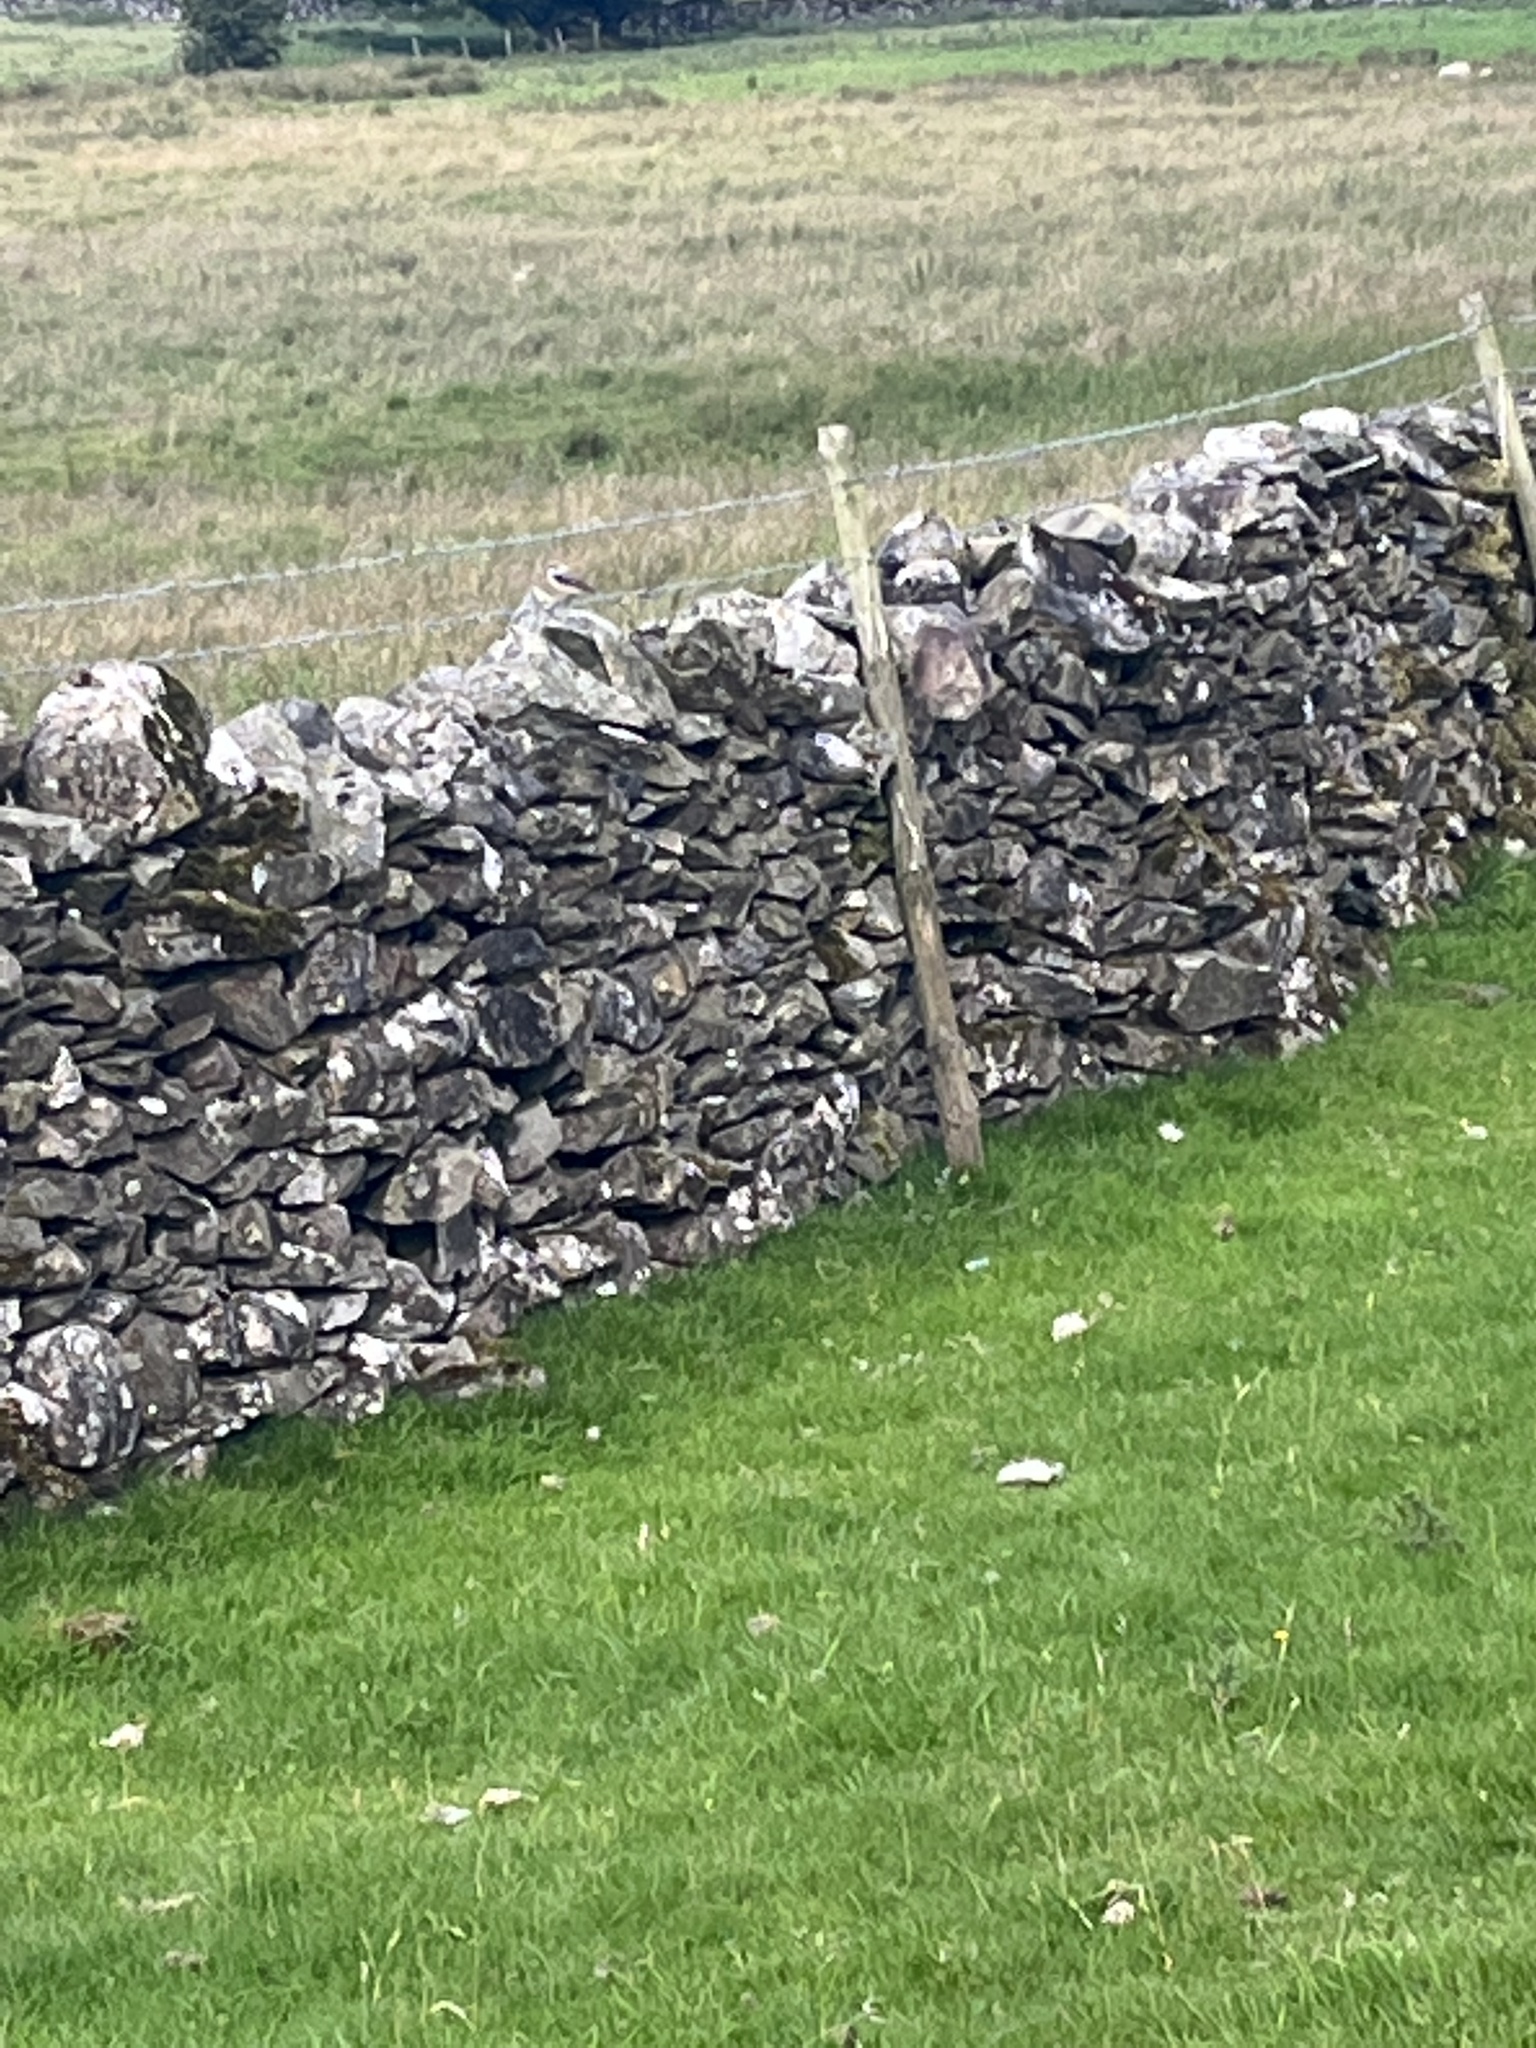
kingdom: Animalia
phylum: Chordata
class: Aves
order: Passeriformes
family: Muscicapidae
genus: Oenanthe
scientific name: Oenanthe oenanthe
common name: Northern wheatear
